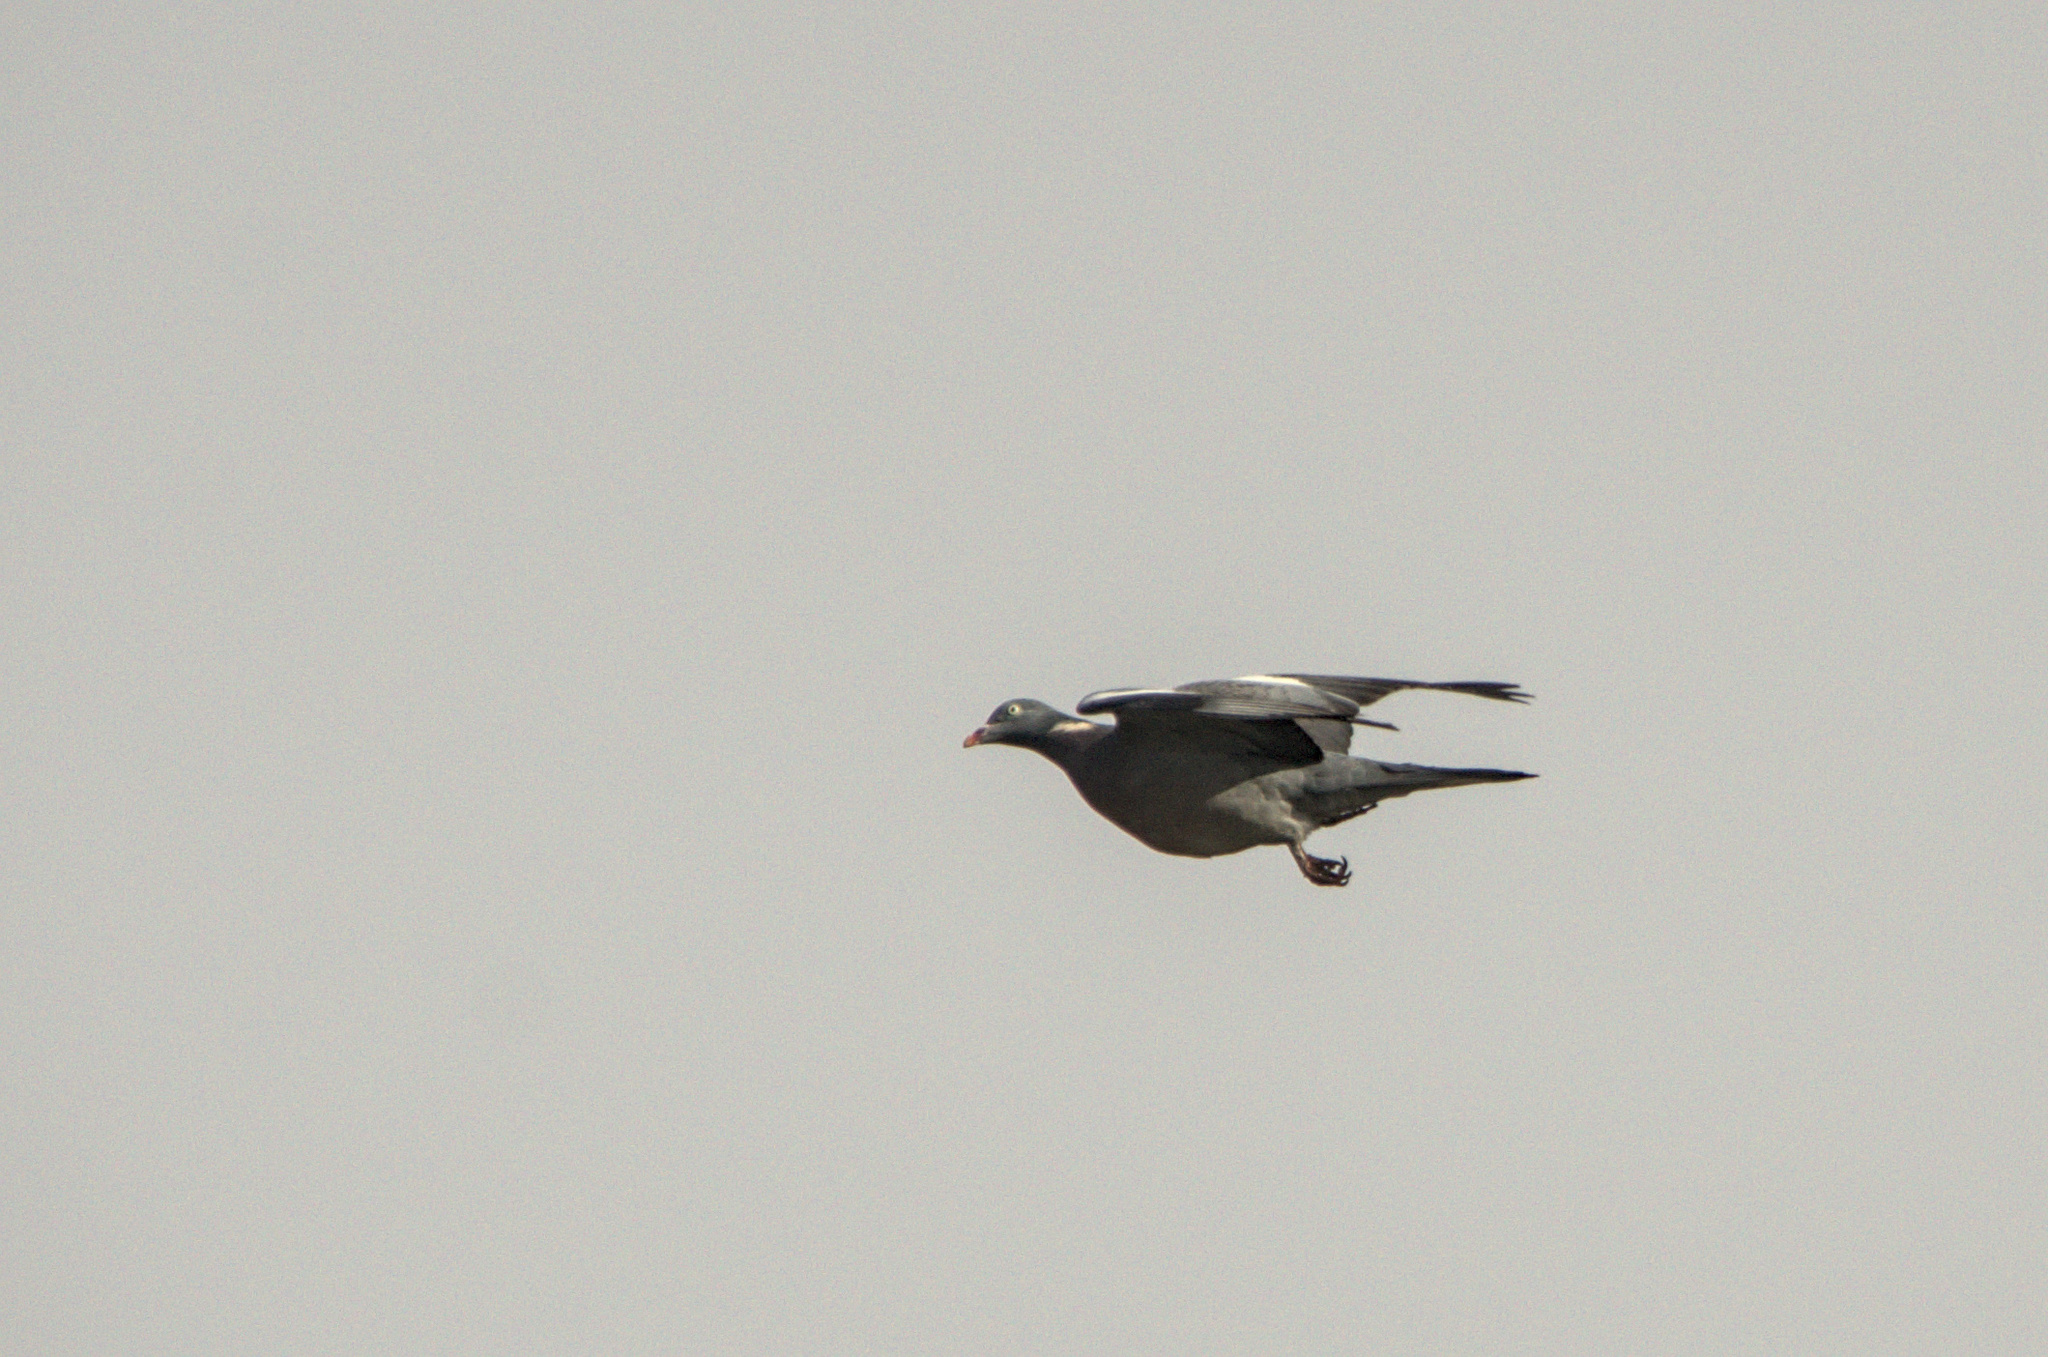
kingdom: Animalia
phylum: Chordata
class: Aves
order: Columbiformes
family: Columbidae
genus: Columba
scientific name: Columba palumbus
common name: Common wood pigeon
